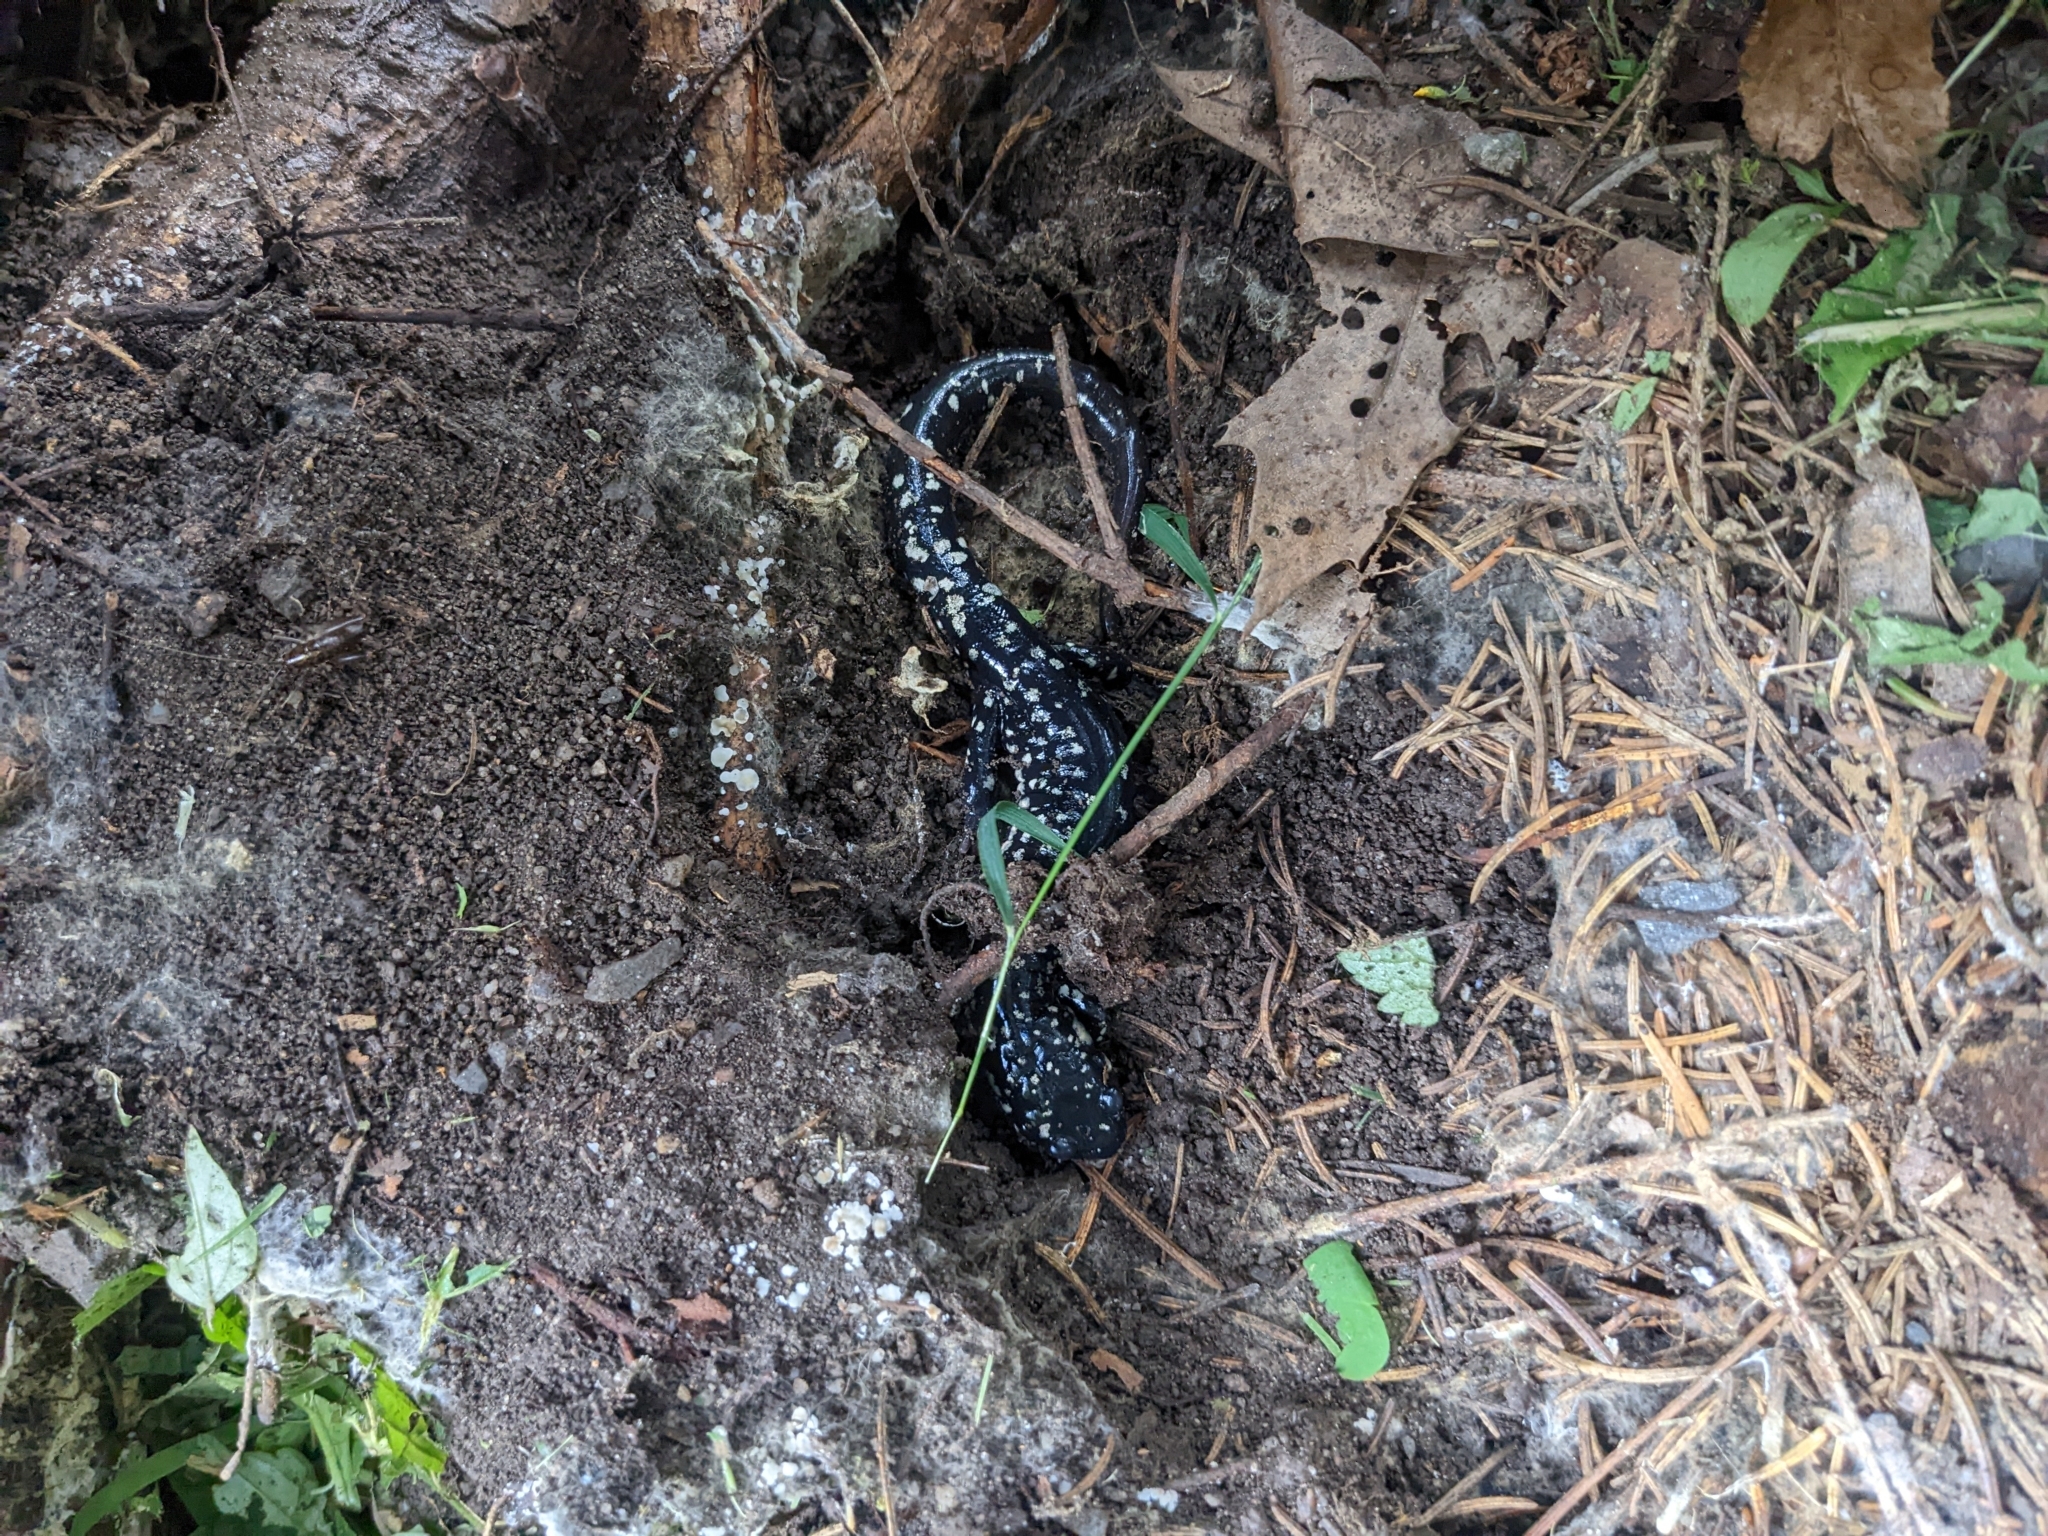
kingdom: Animalia
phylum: Chordata
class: Amphibia
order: Caudata
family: Plethodontidae
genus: Plethodon
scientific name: Plethodon glutinosus
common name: Northern slimy salamander
